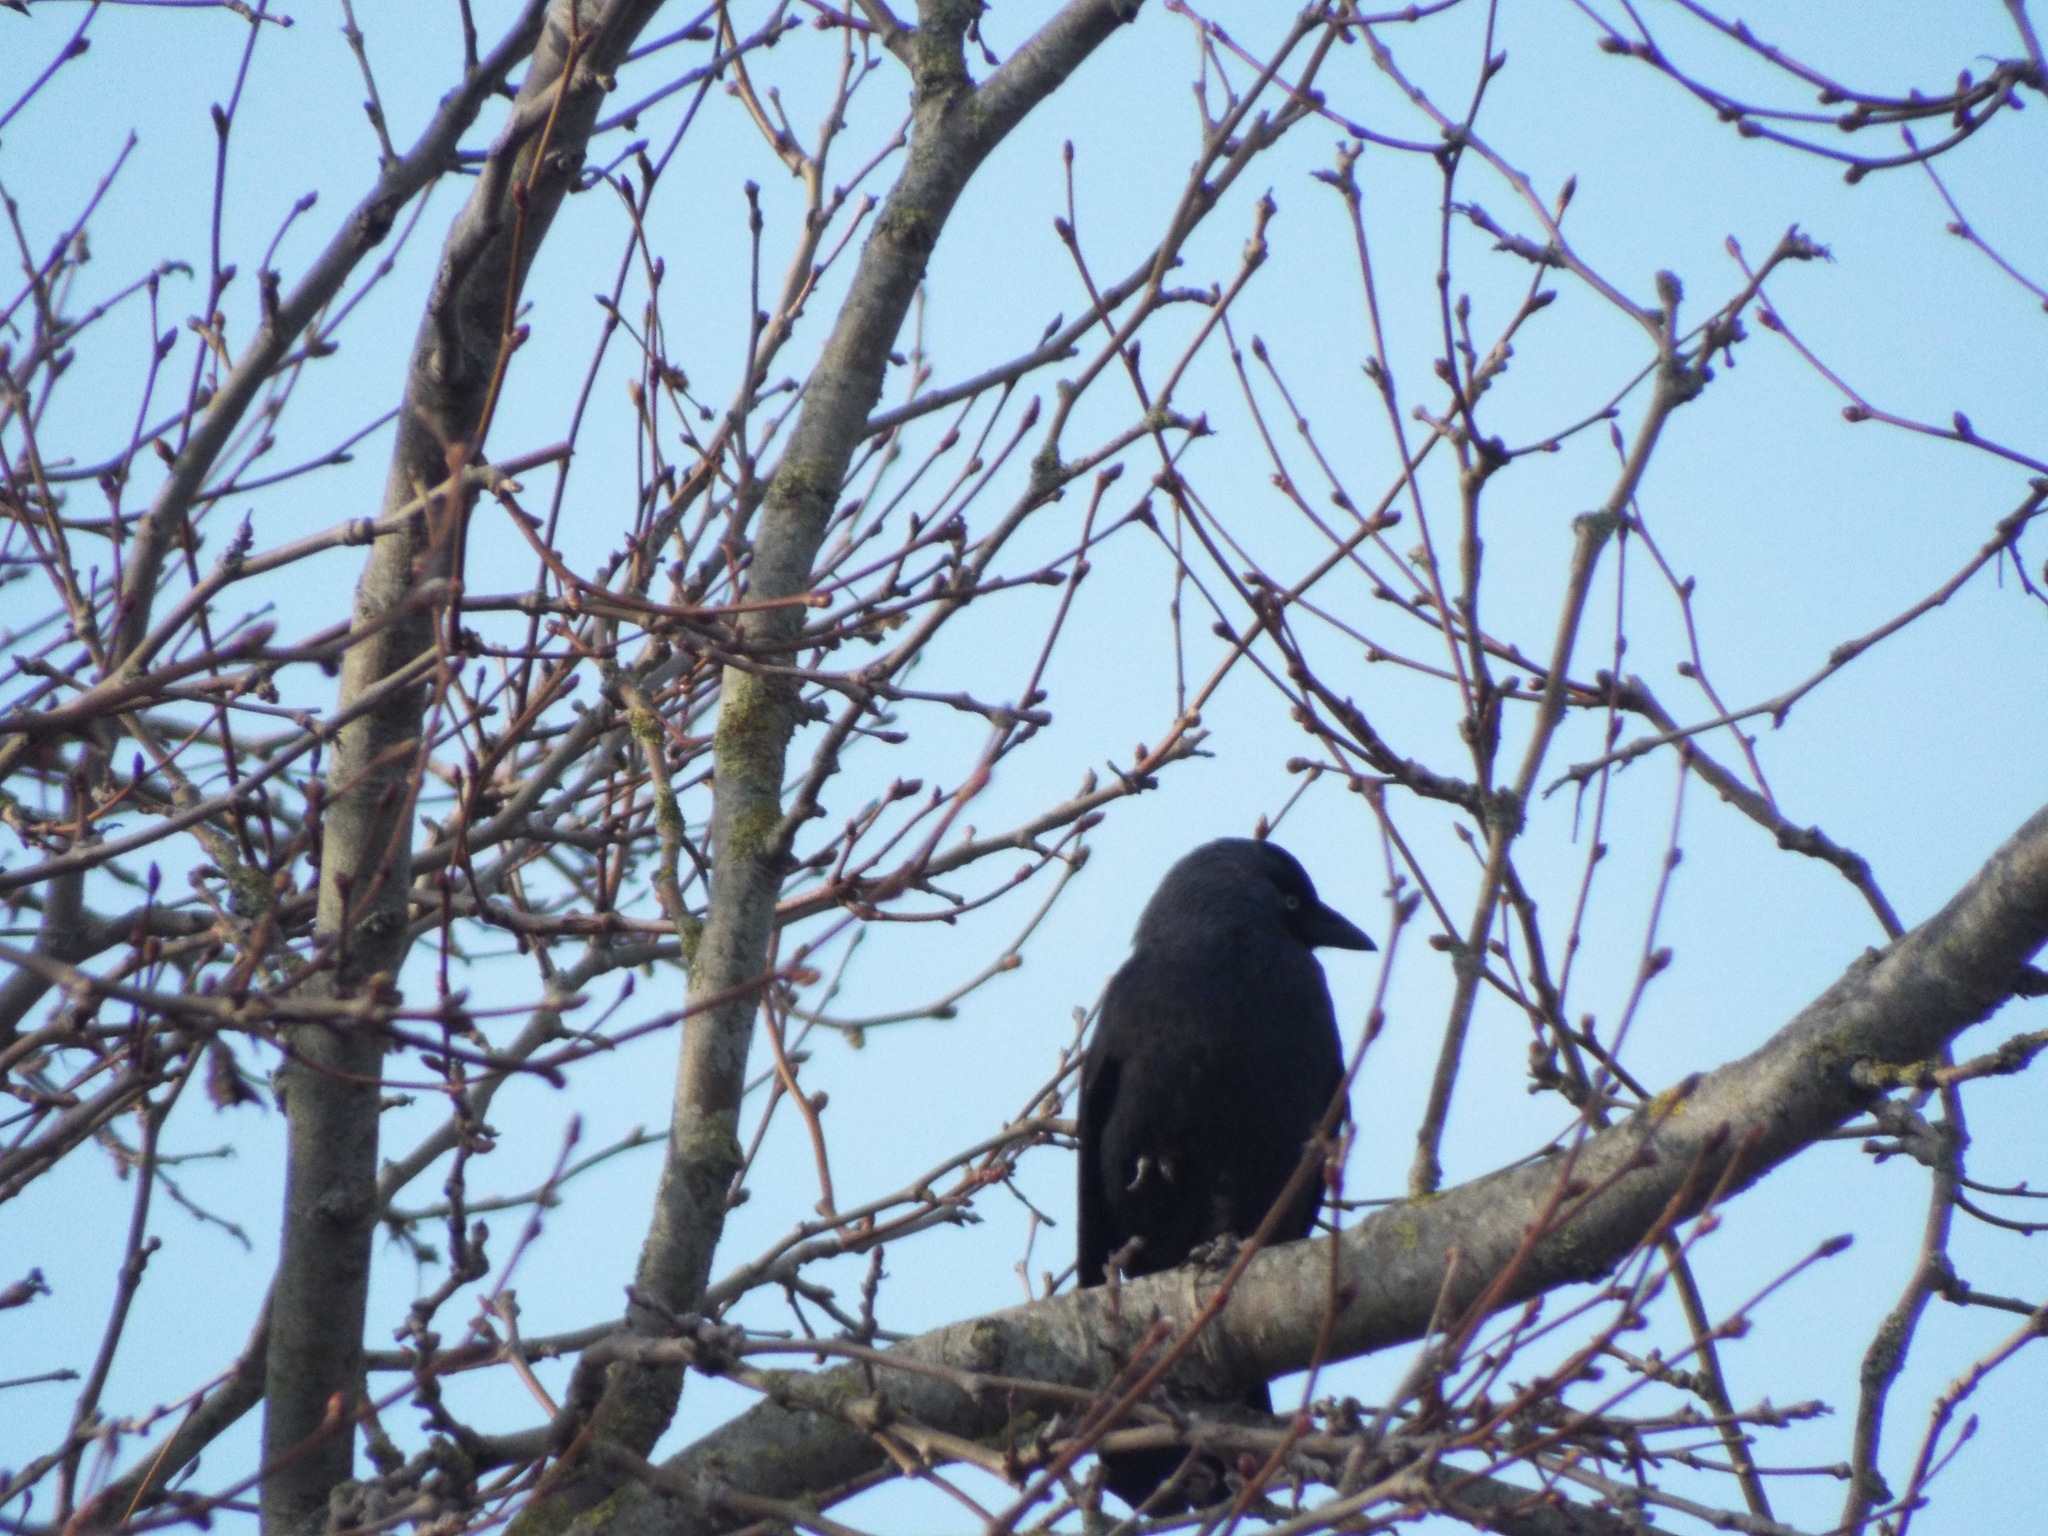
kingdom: Animalia
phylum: Chordata
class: Aves
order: Passeriformes
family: Corvidae
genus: Coloeus
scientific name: Coloeus monedula
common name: Western jackdaw
